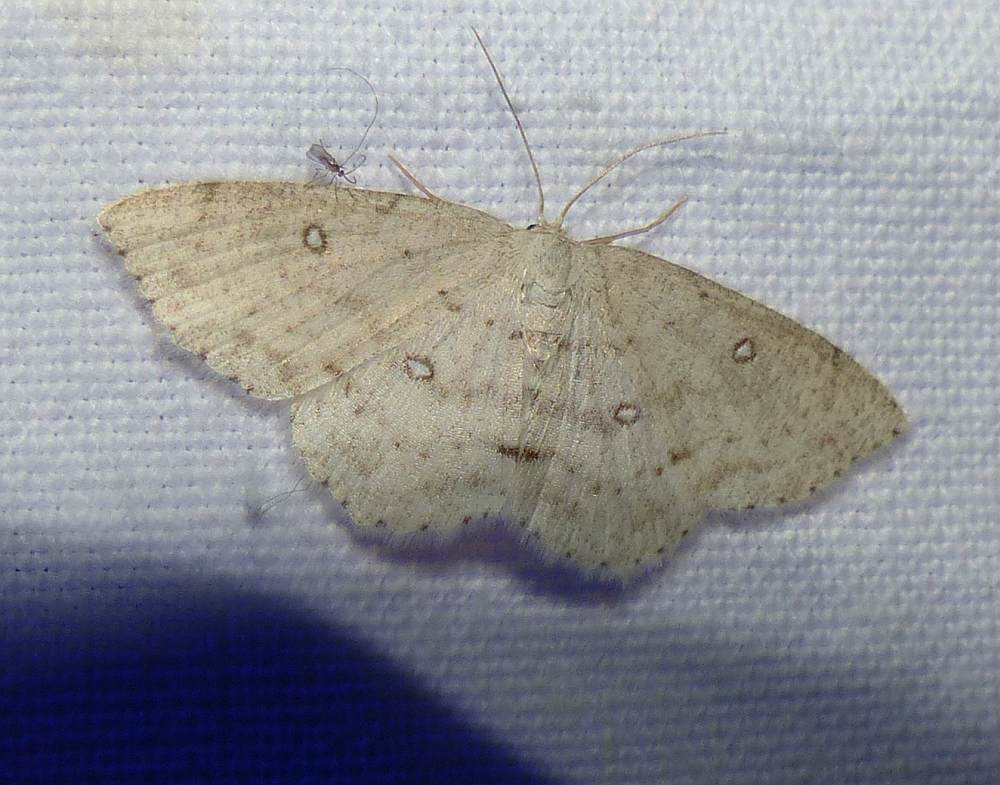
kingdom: Animalia
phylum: Arthropoda
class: Insecta
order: Lepidoptera
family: Geometridae
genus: Cyclophora
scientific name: Cyclophora pendulinaria
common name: Sweet fern geometer
